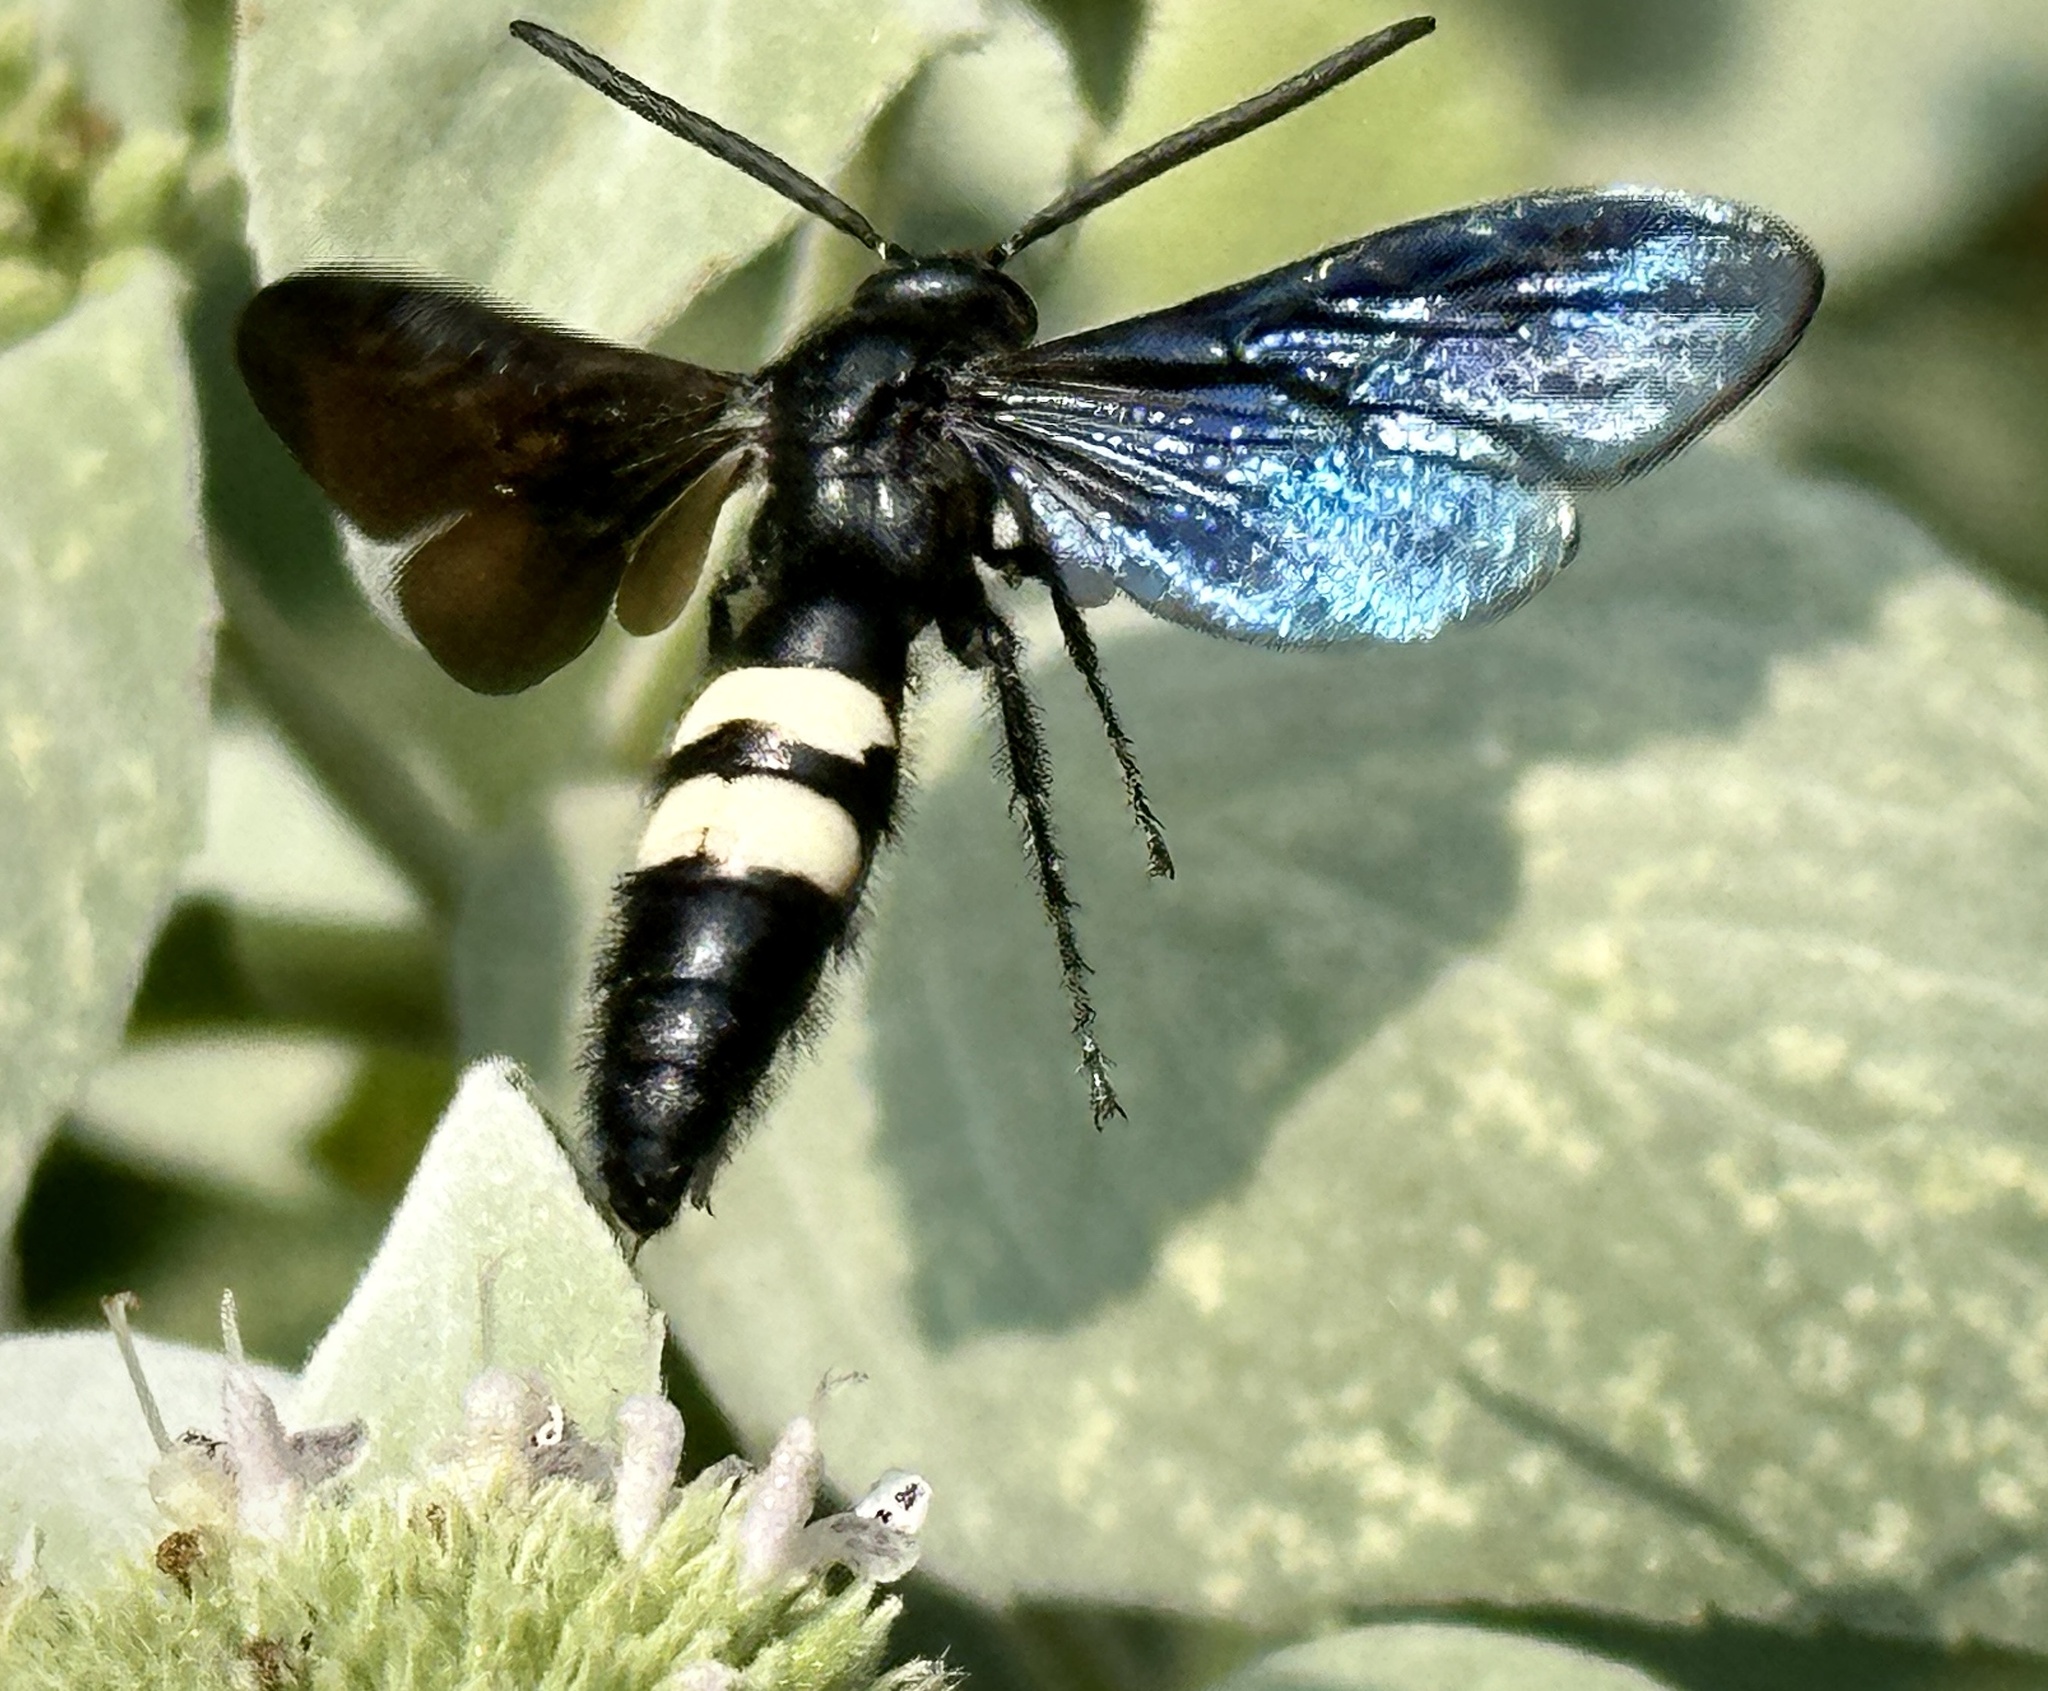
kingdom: Animalia
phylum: Arthropoda
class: Insecta
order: Hymenoptera
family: Scoliidae
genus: Scolia
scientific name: Scolia bicincta
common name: Double-banded scoliid wasp
